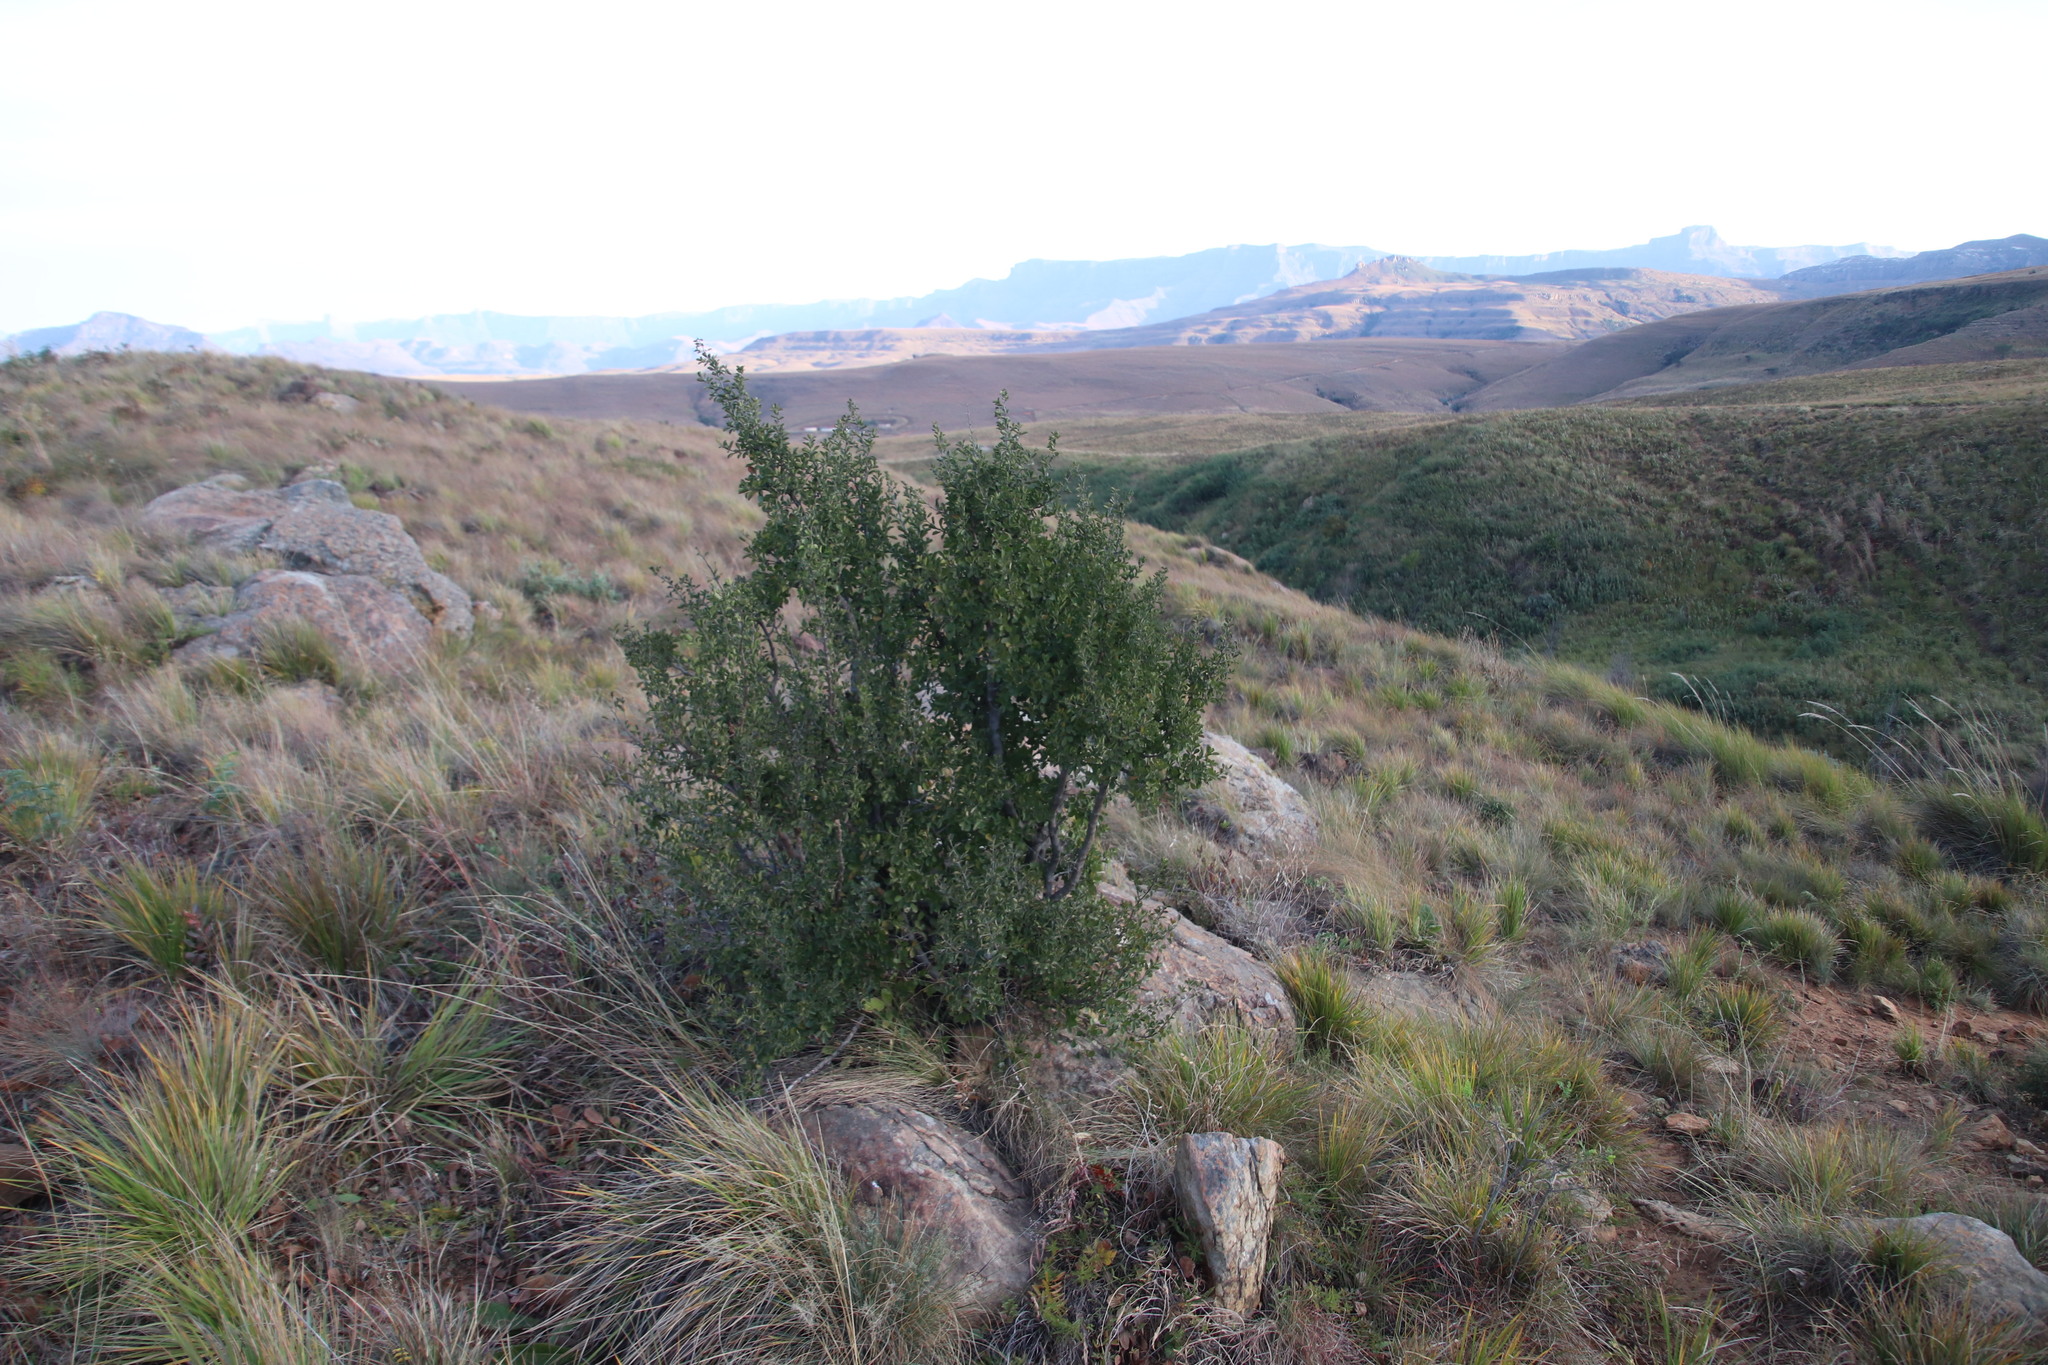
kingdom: Plantae
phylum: Tracheophyta
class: Magnoliopsida
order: Ericales
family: Ebenaceae
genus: Diospyros
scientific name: Diospyros lycioides
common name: Red star apple
